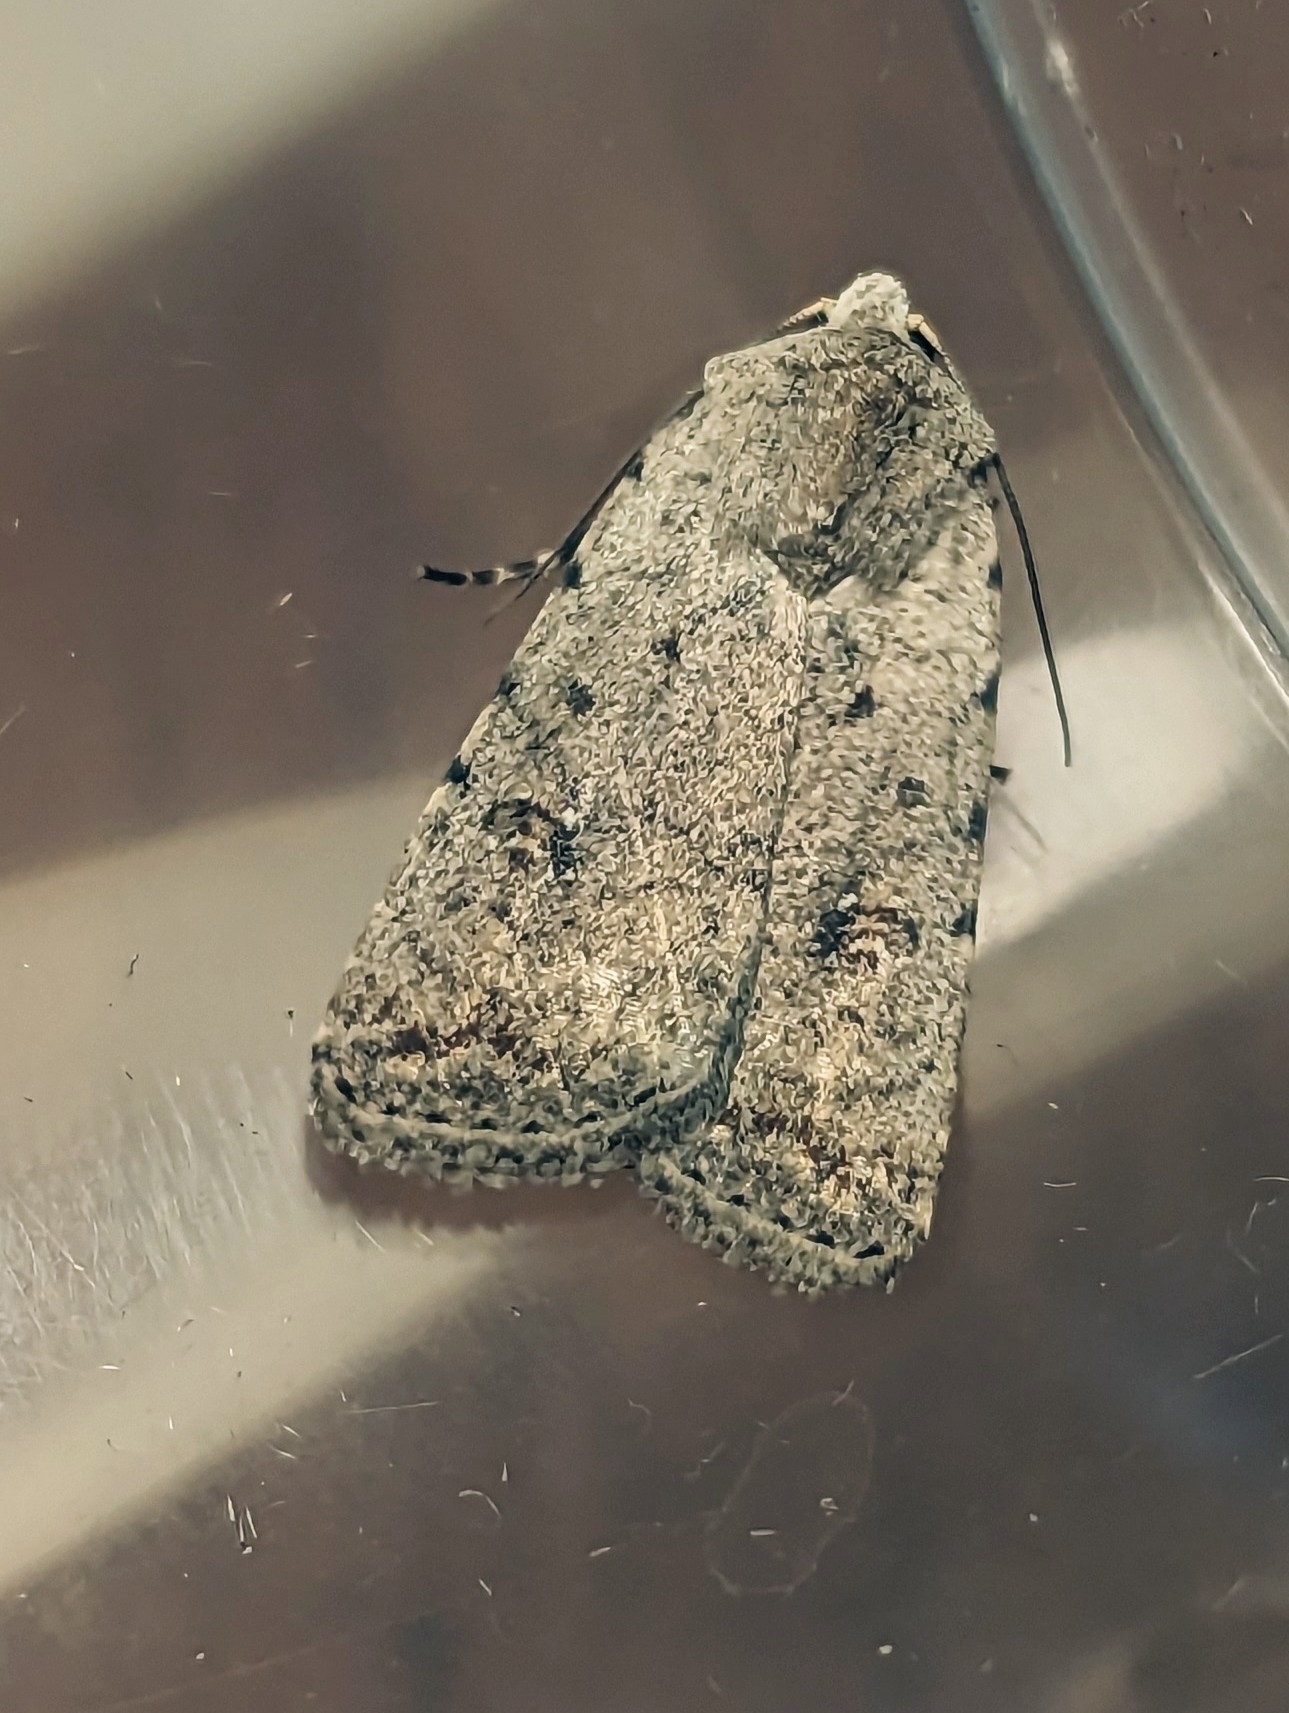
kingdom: Animalia
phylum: Arthropoda
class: Insecta
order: Lepidoptera
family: Noctuidae
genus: Caradrina
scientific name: Caradrina clavipalpis
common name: Pale mottled willow
